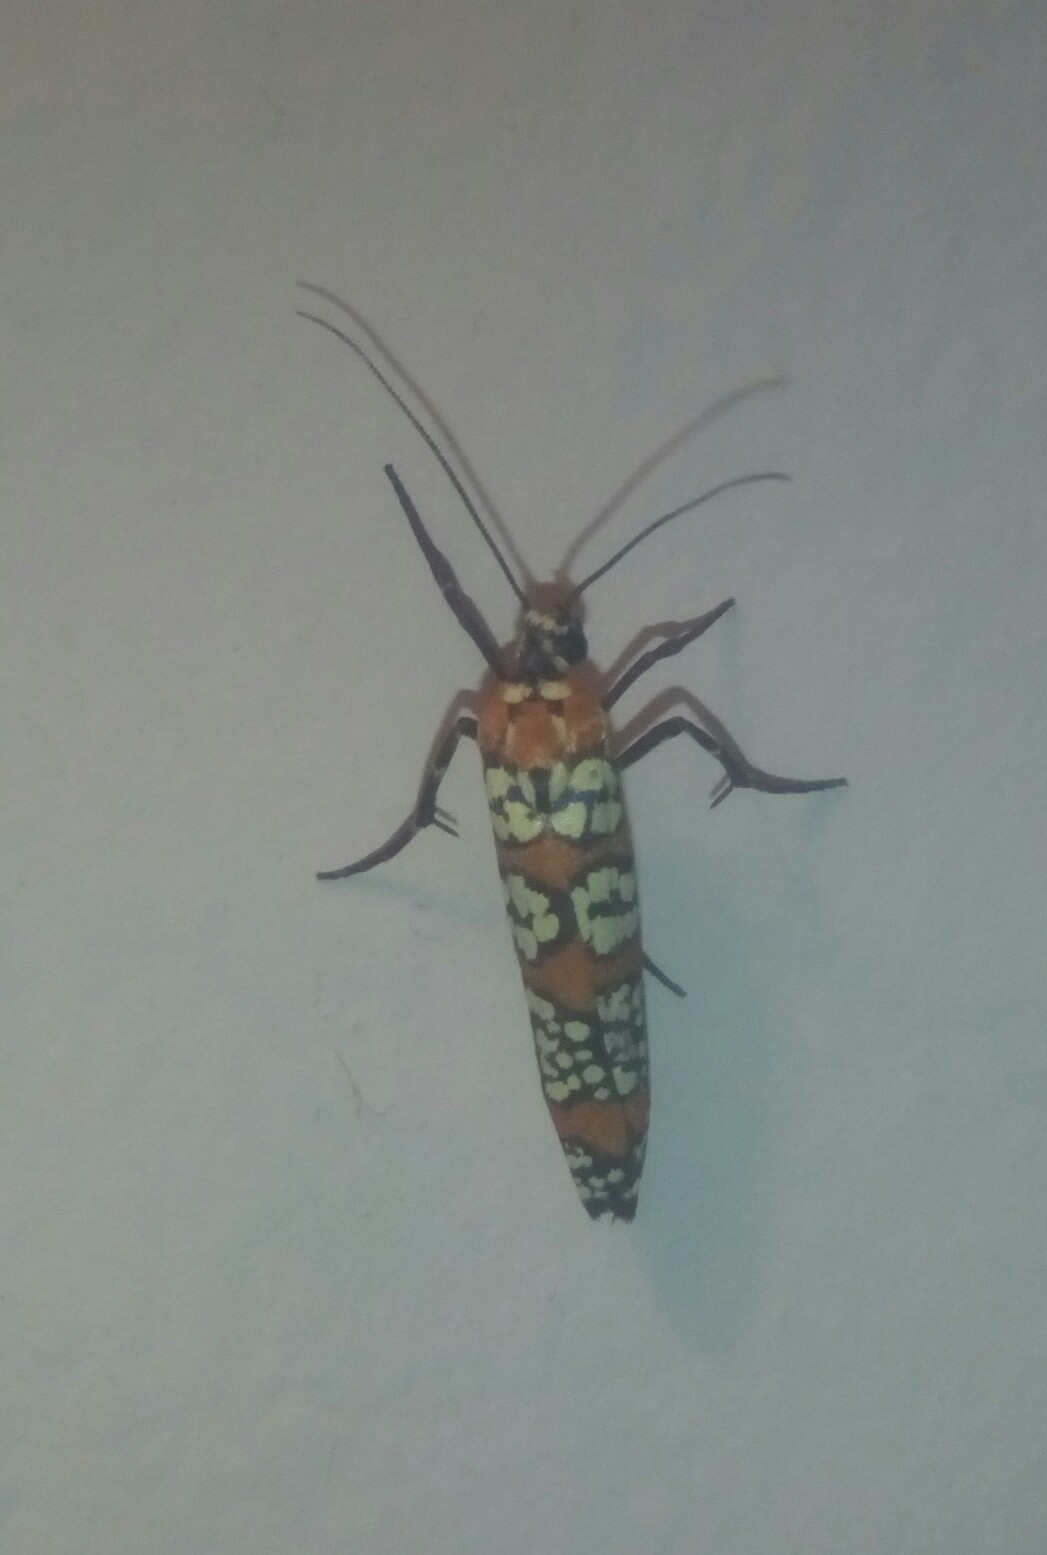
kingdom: Animalia
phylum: Arthropoda
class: Insecta
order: Lepidoptera
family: Attevidae
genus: Atteva
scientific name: Atteva punctella
